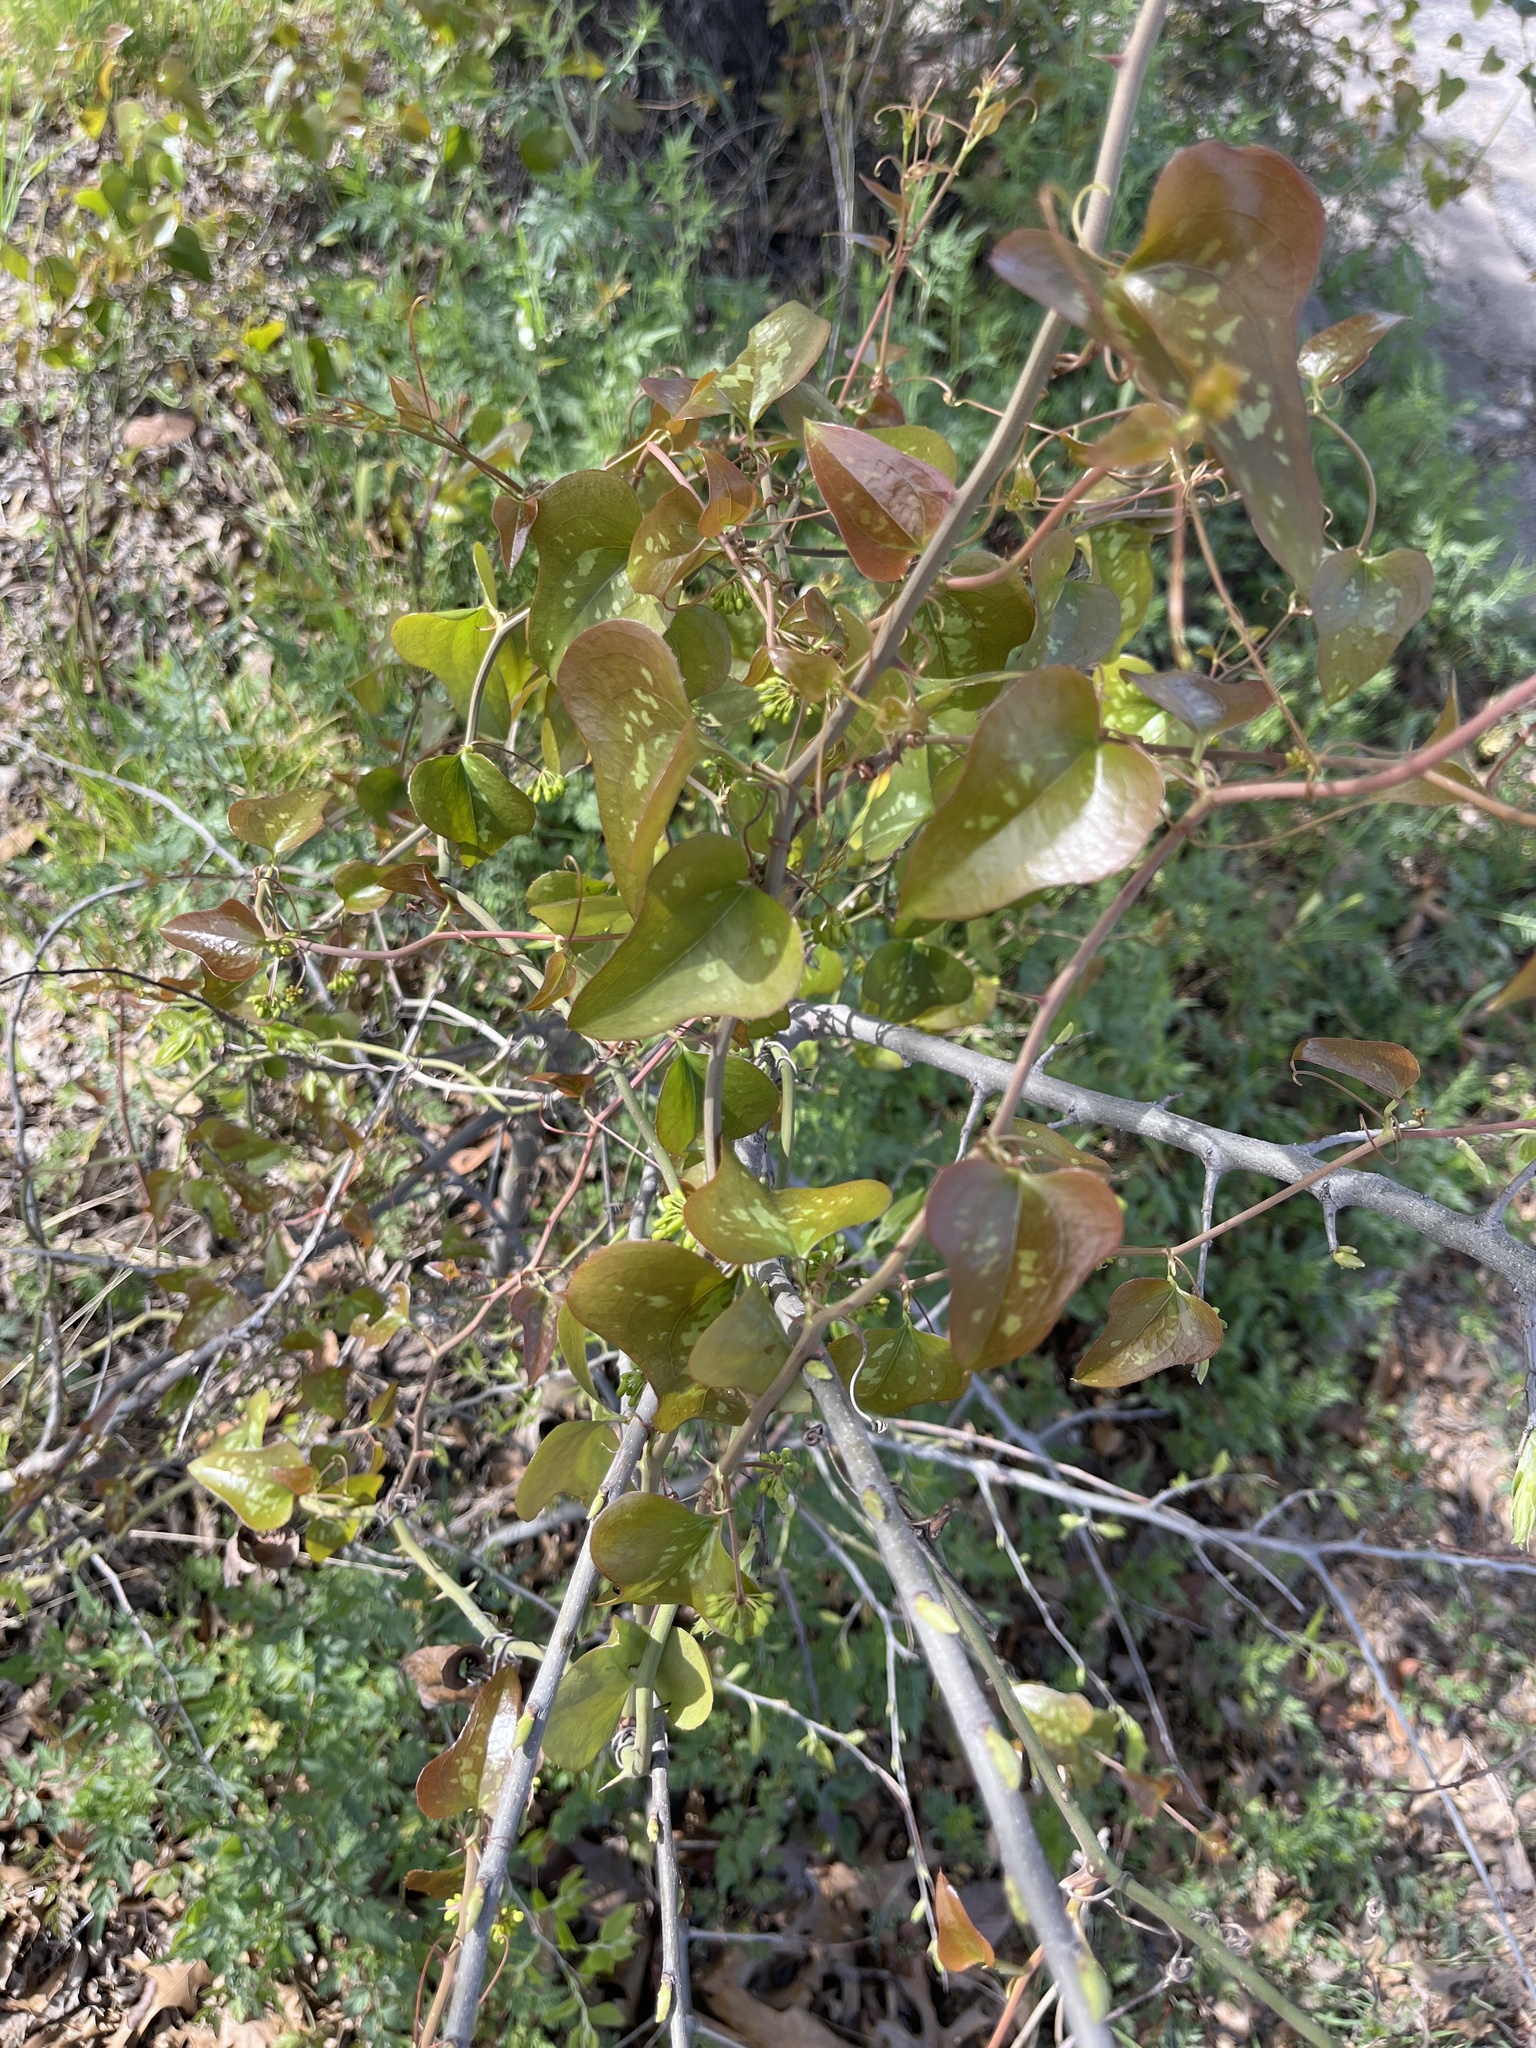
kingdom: Plantae
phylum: Tracheophyta
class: Liliopsida
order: Liliales
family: Smilacaceae
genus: Smilax
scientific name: Smilax bona-nox
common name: Catbrier
